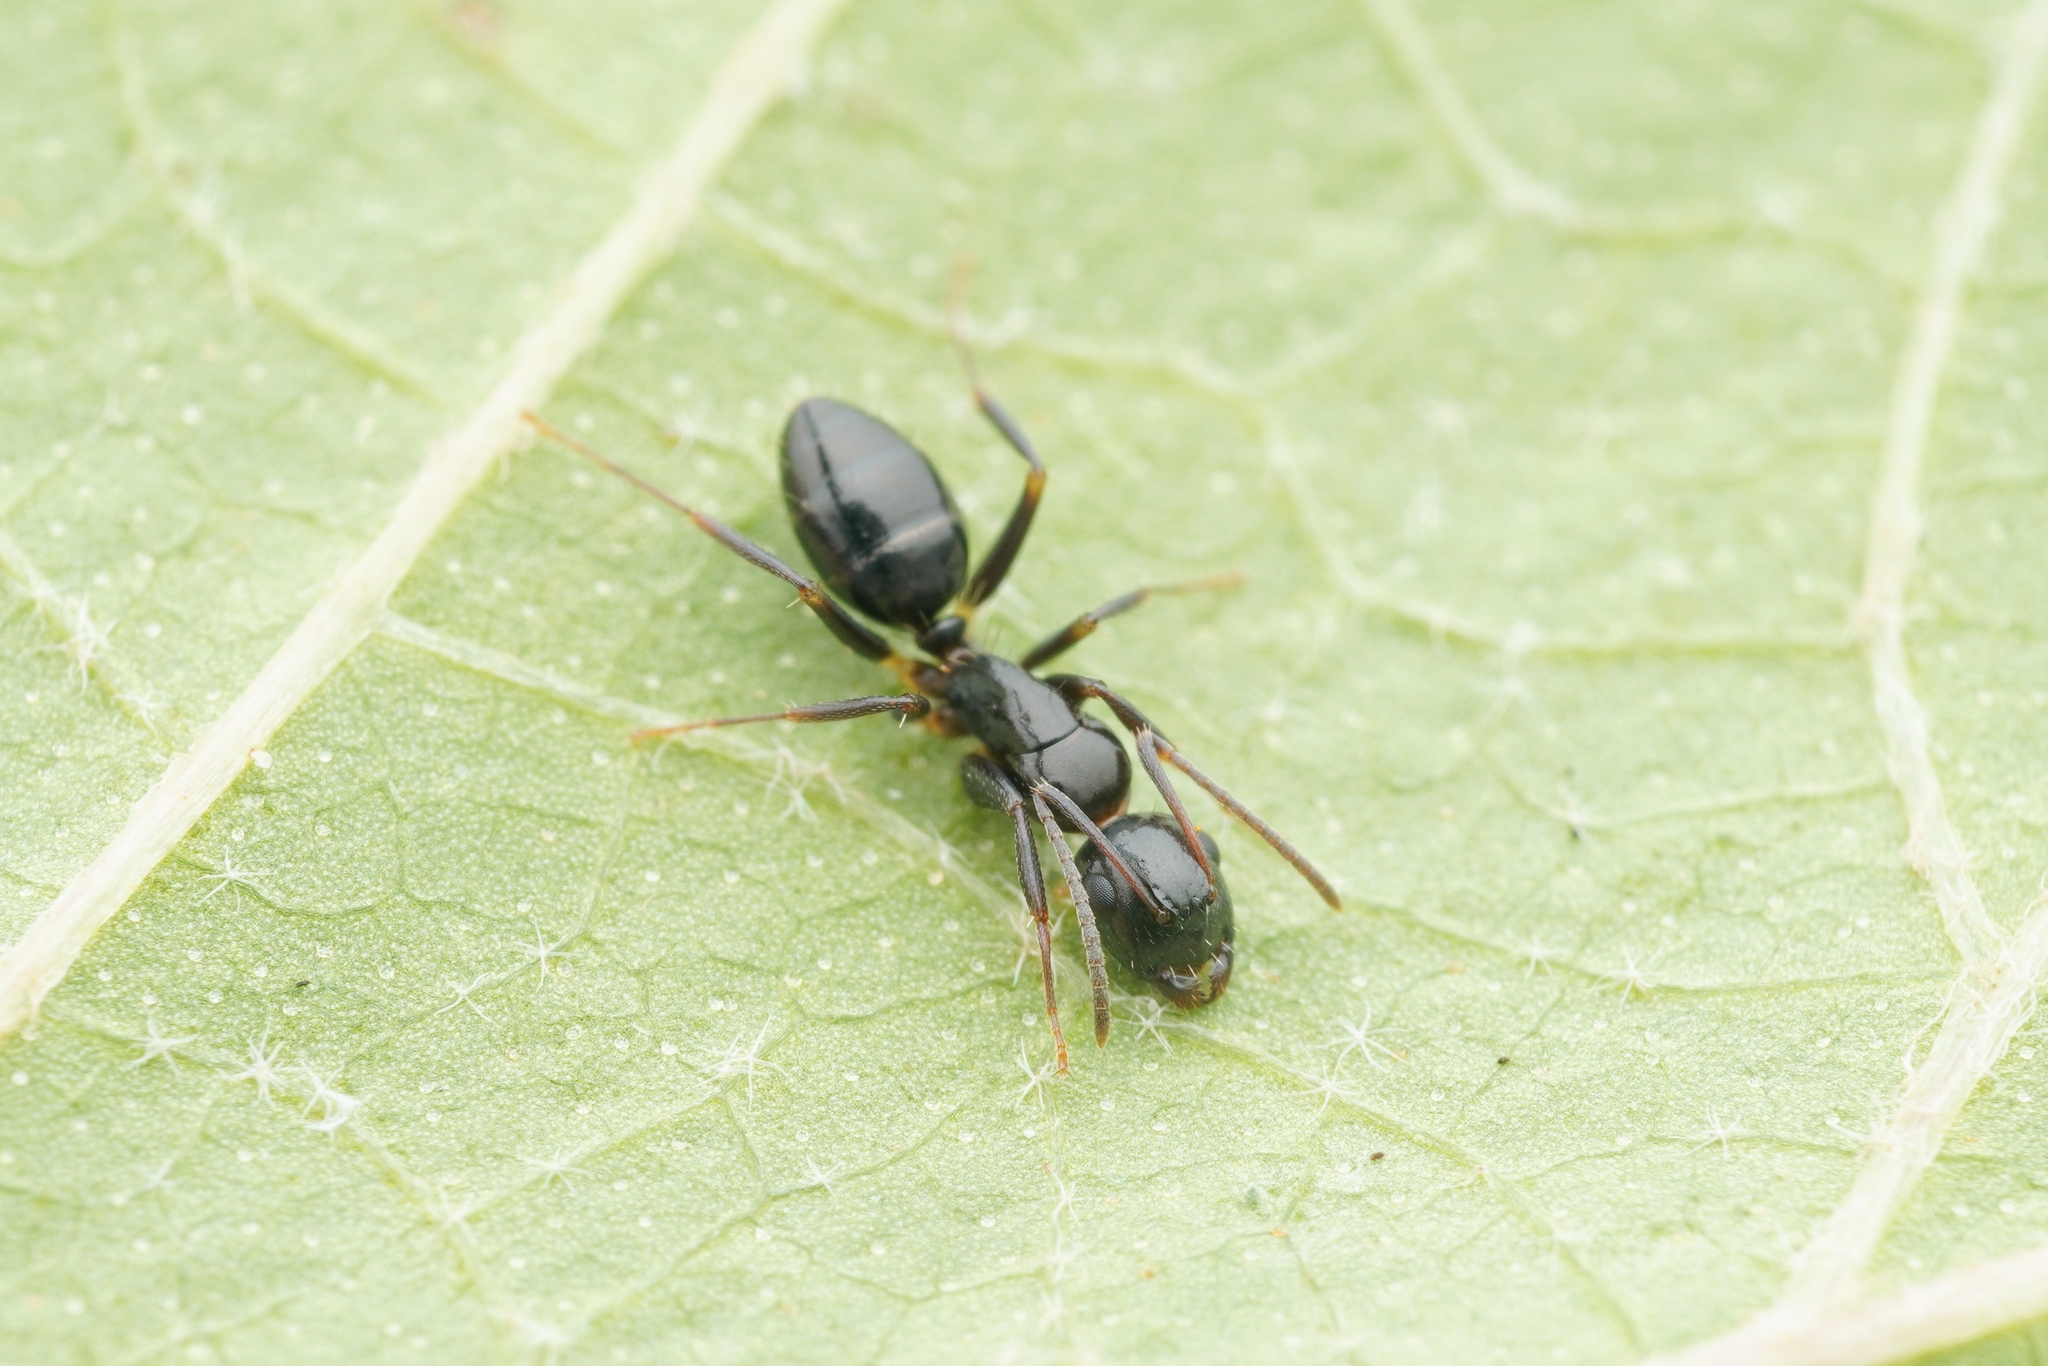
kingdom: Animalia
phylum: Arthropoda
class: Insecta
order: Hymenoptera
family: Formicidae
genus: Camponotus
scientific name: Camponotus
